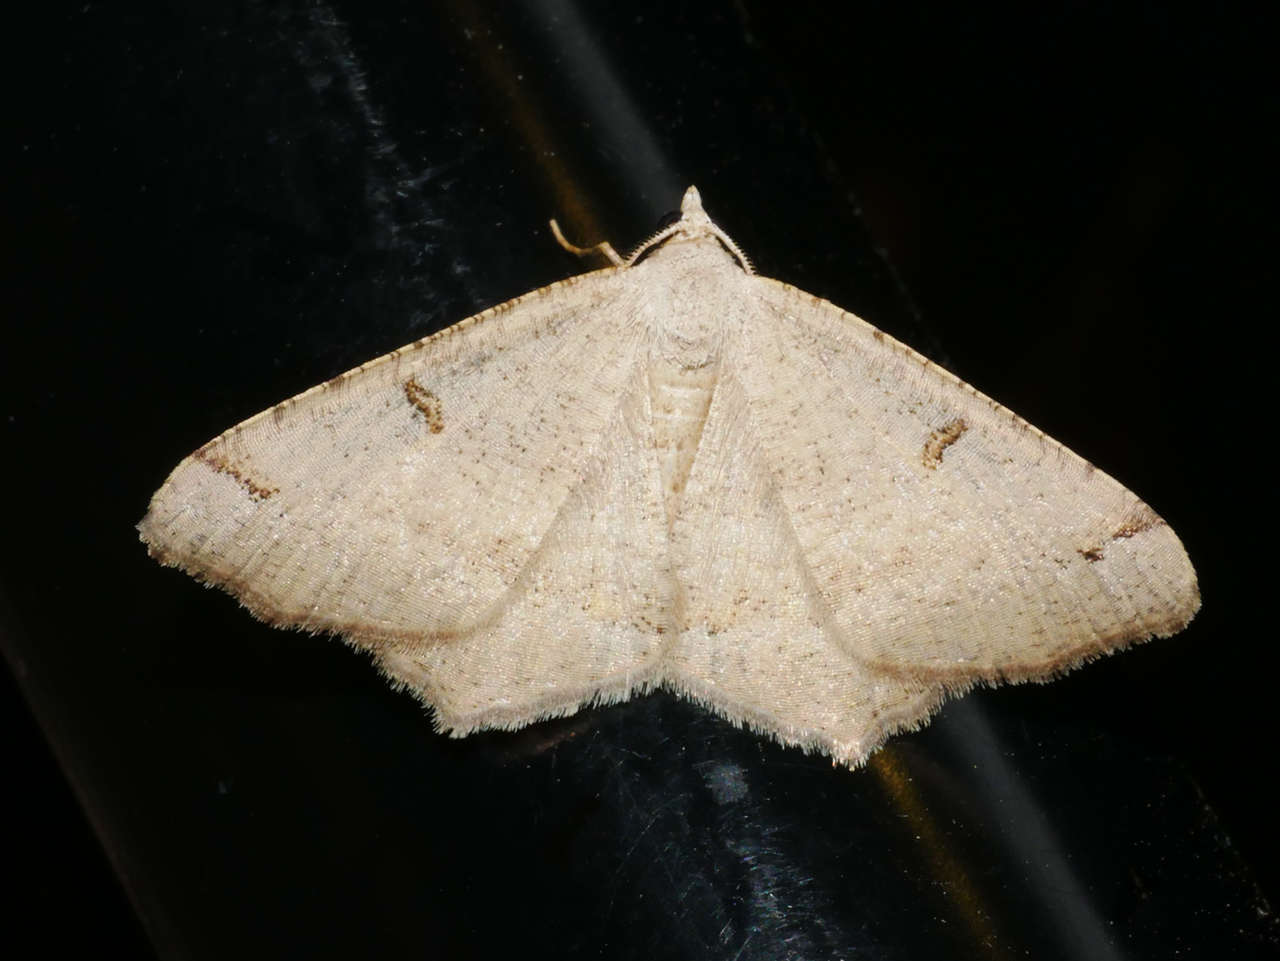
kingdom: Animalia
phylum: Arthropoda
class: Insecta
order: Lepidoptera
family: Geometridae
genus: Dissomorphia
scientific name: Dissomorphia australiaria
